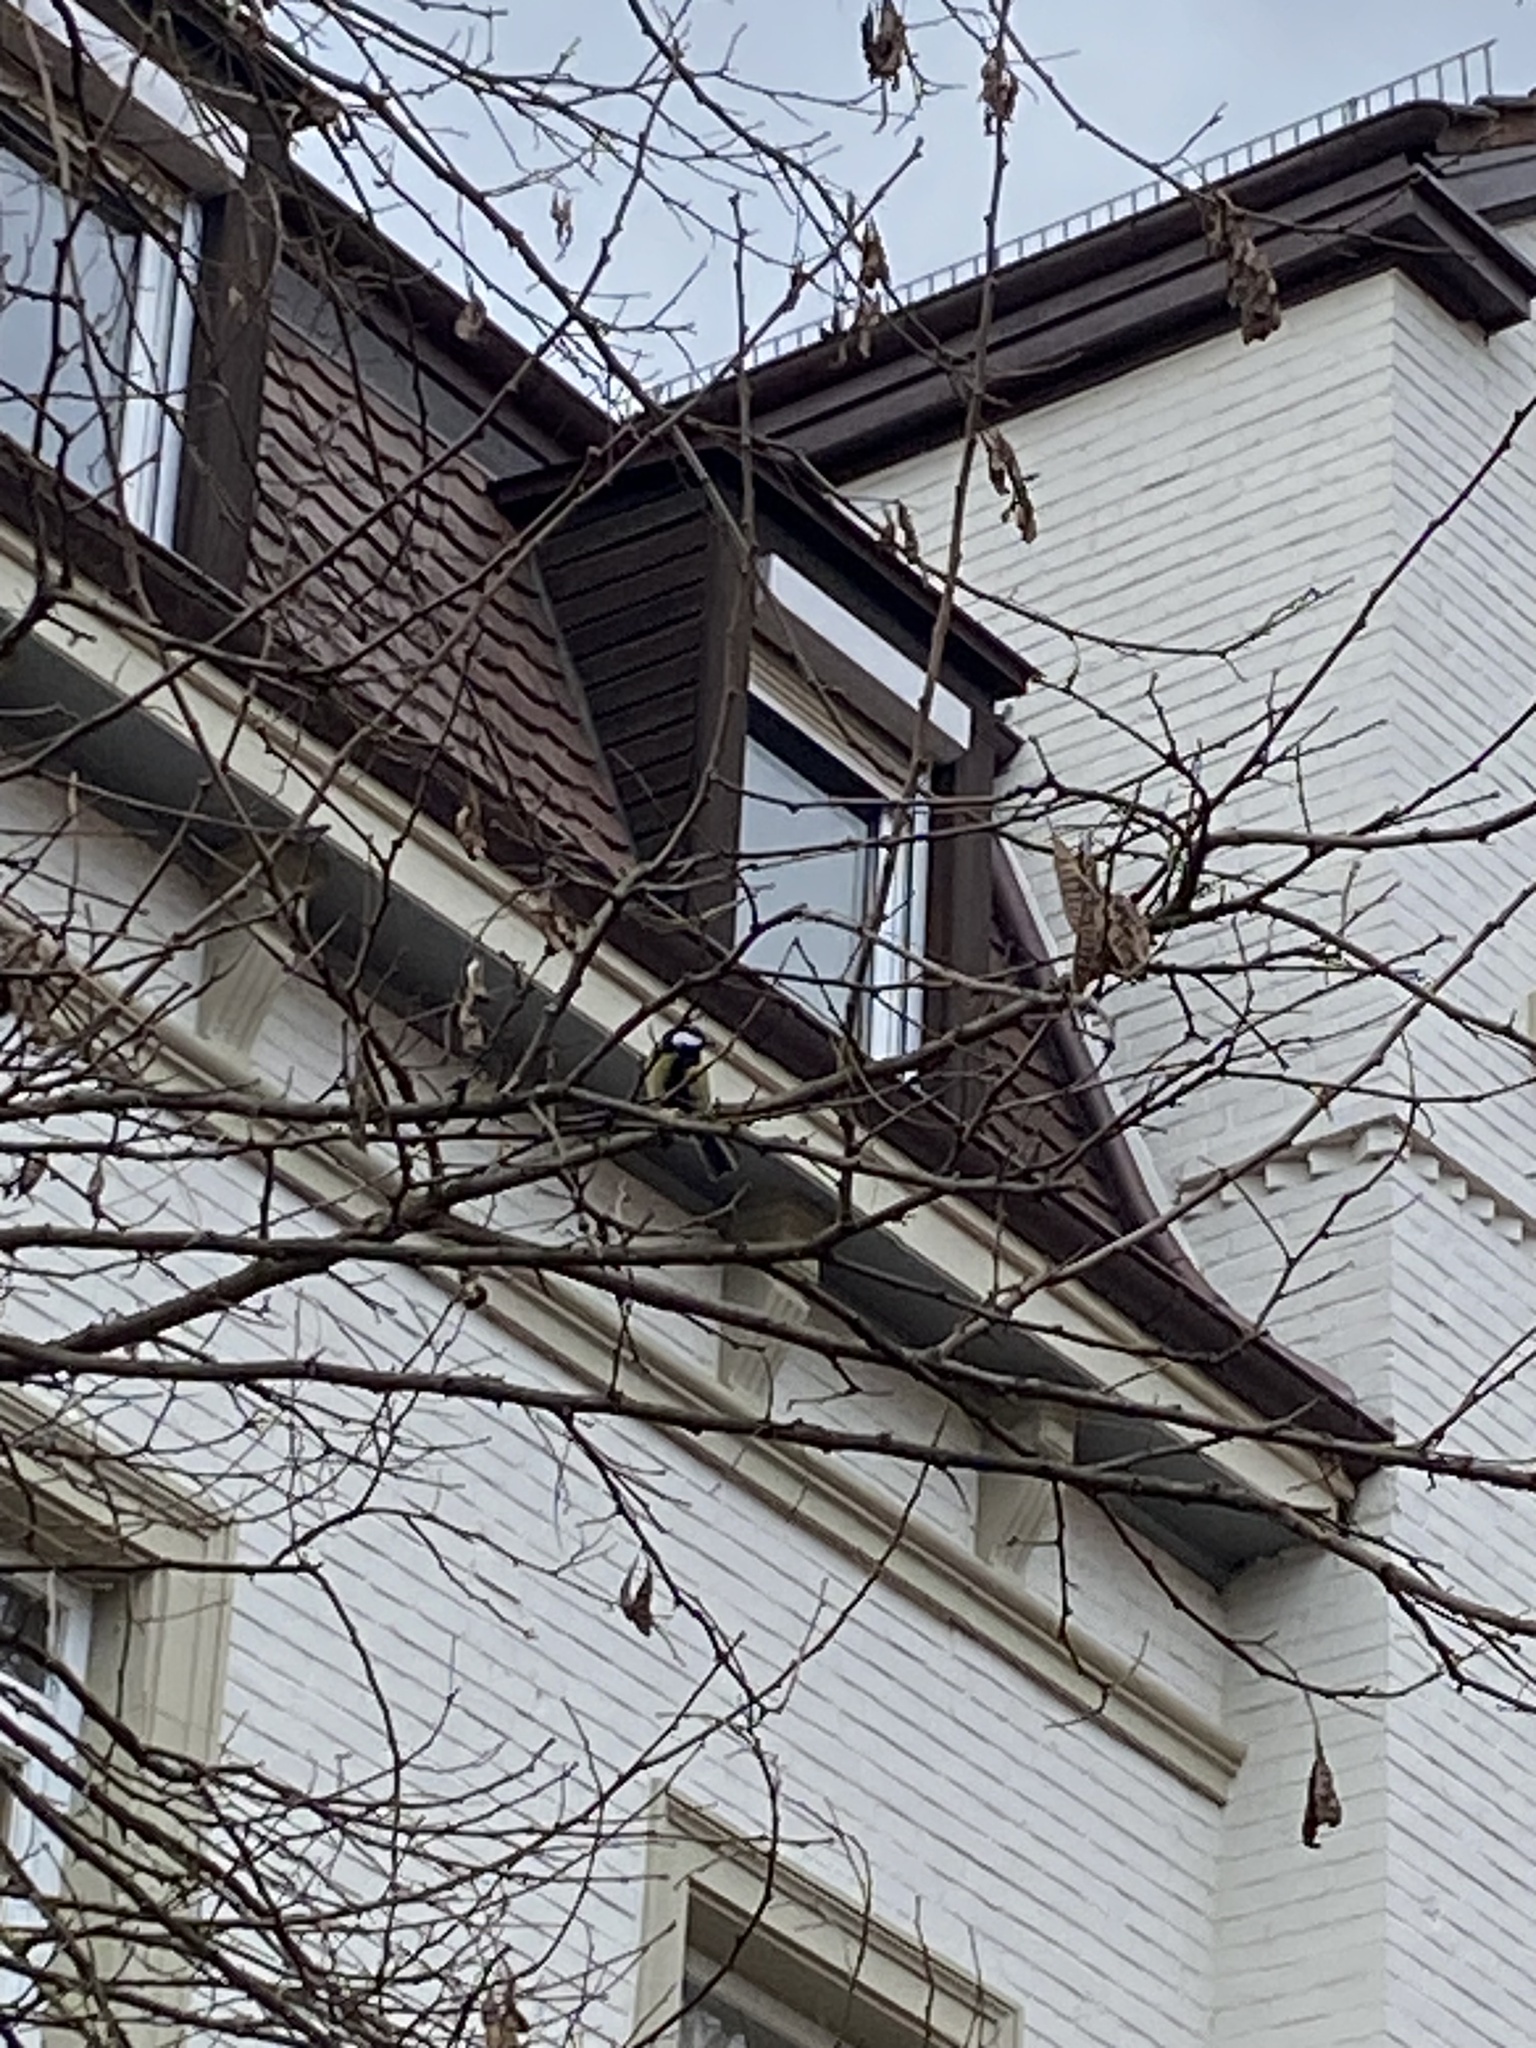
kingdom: Animalia
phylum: Chordata
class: Aves
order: Passeriformes
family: Paridae
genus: Parus
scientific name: Parus major
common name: Great tit
